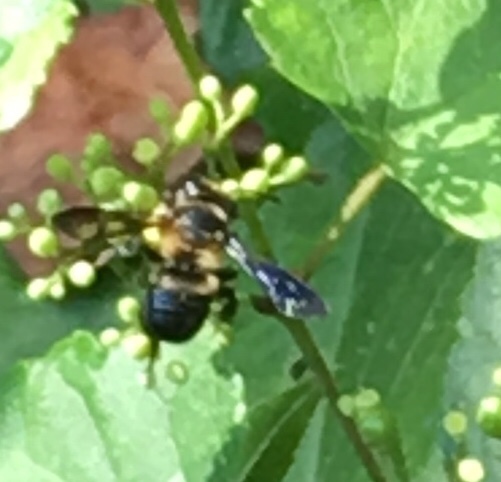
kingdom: Animalia
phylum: Arthropoda
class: Insecta
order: Hymenoptera
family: Megachilidae
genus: Megachile
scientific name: Megachile xylocopoides
